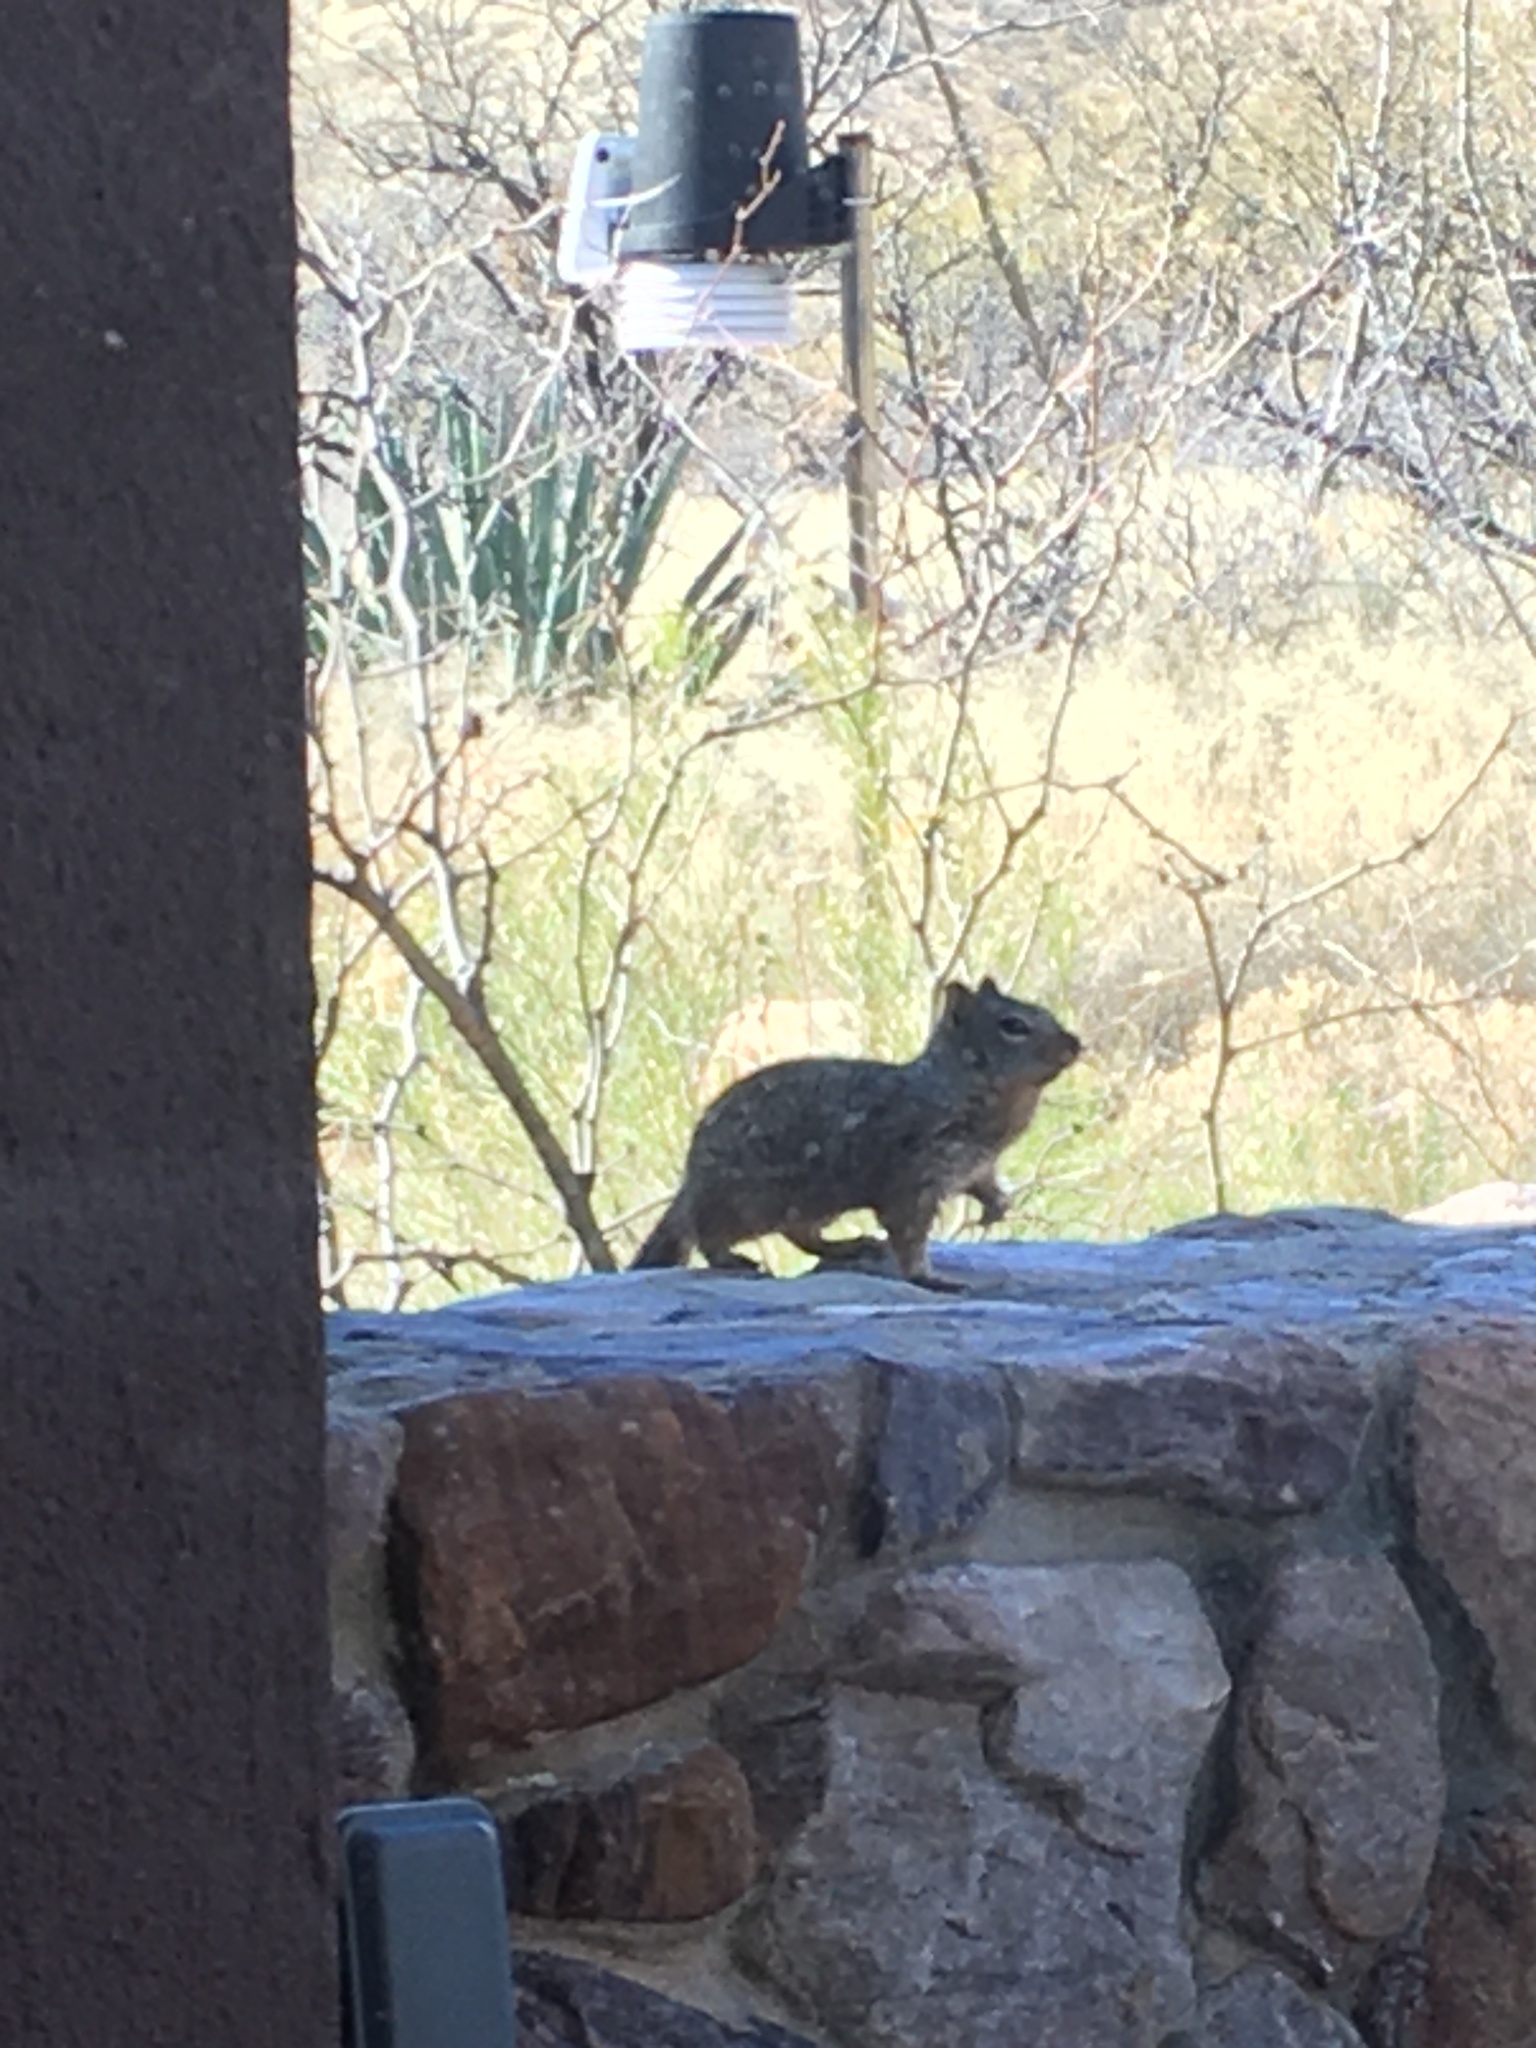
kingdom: Animalia
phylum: Chordata
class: Mammalia
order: Rodentia
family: Sciuridae
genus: Otospermophilus
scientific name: Otospermophilus variegatus
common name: Rock squirrel
